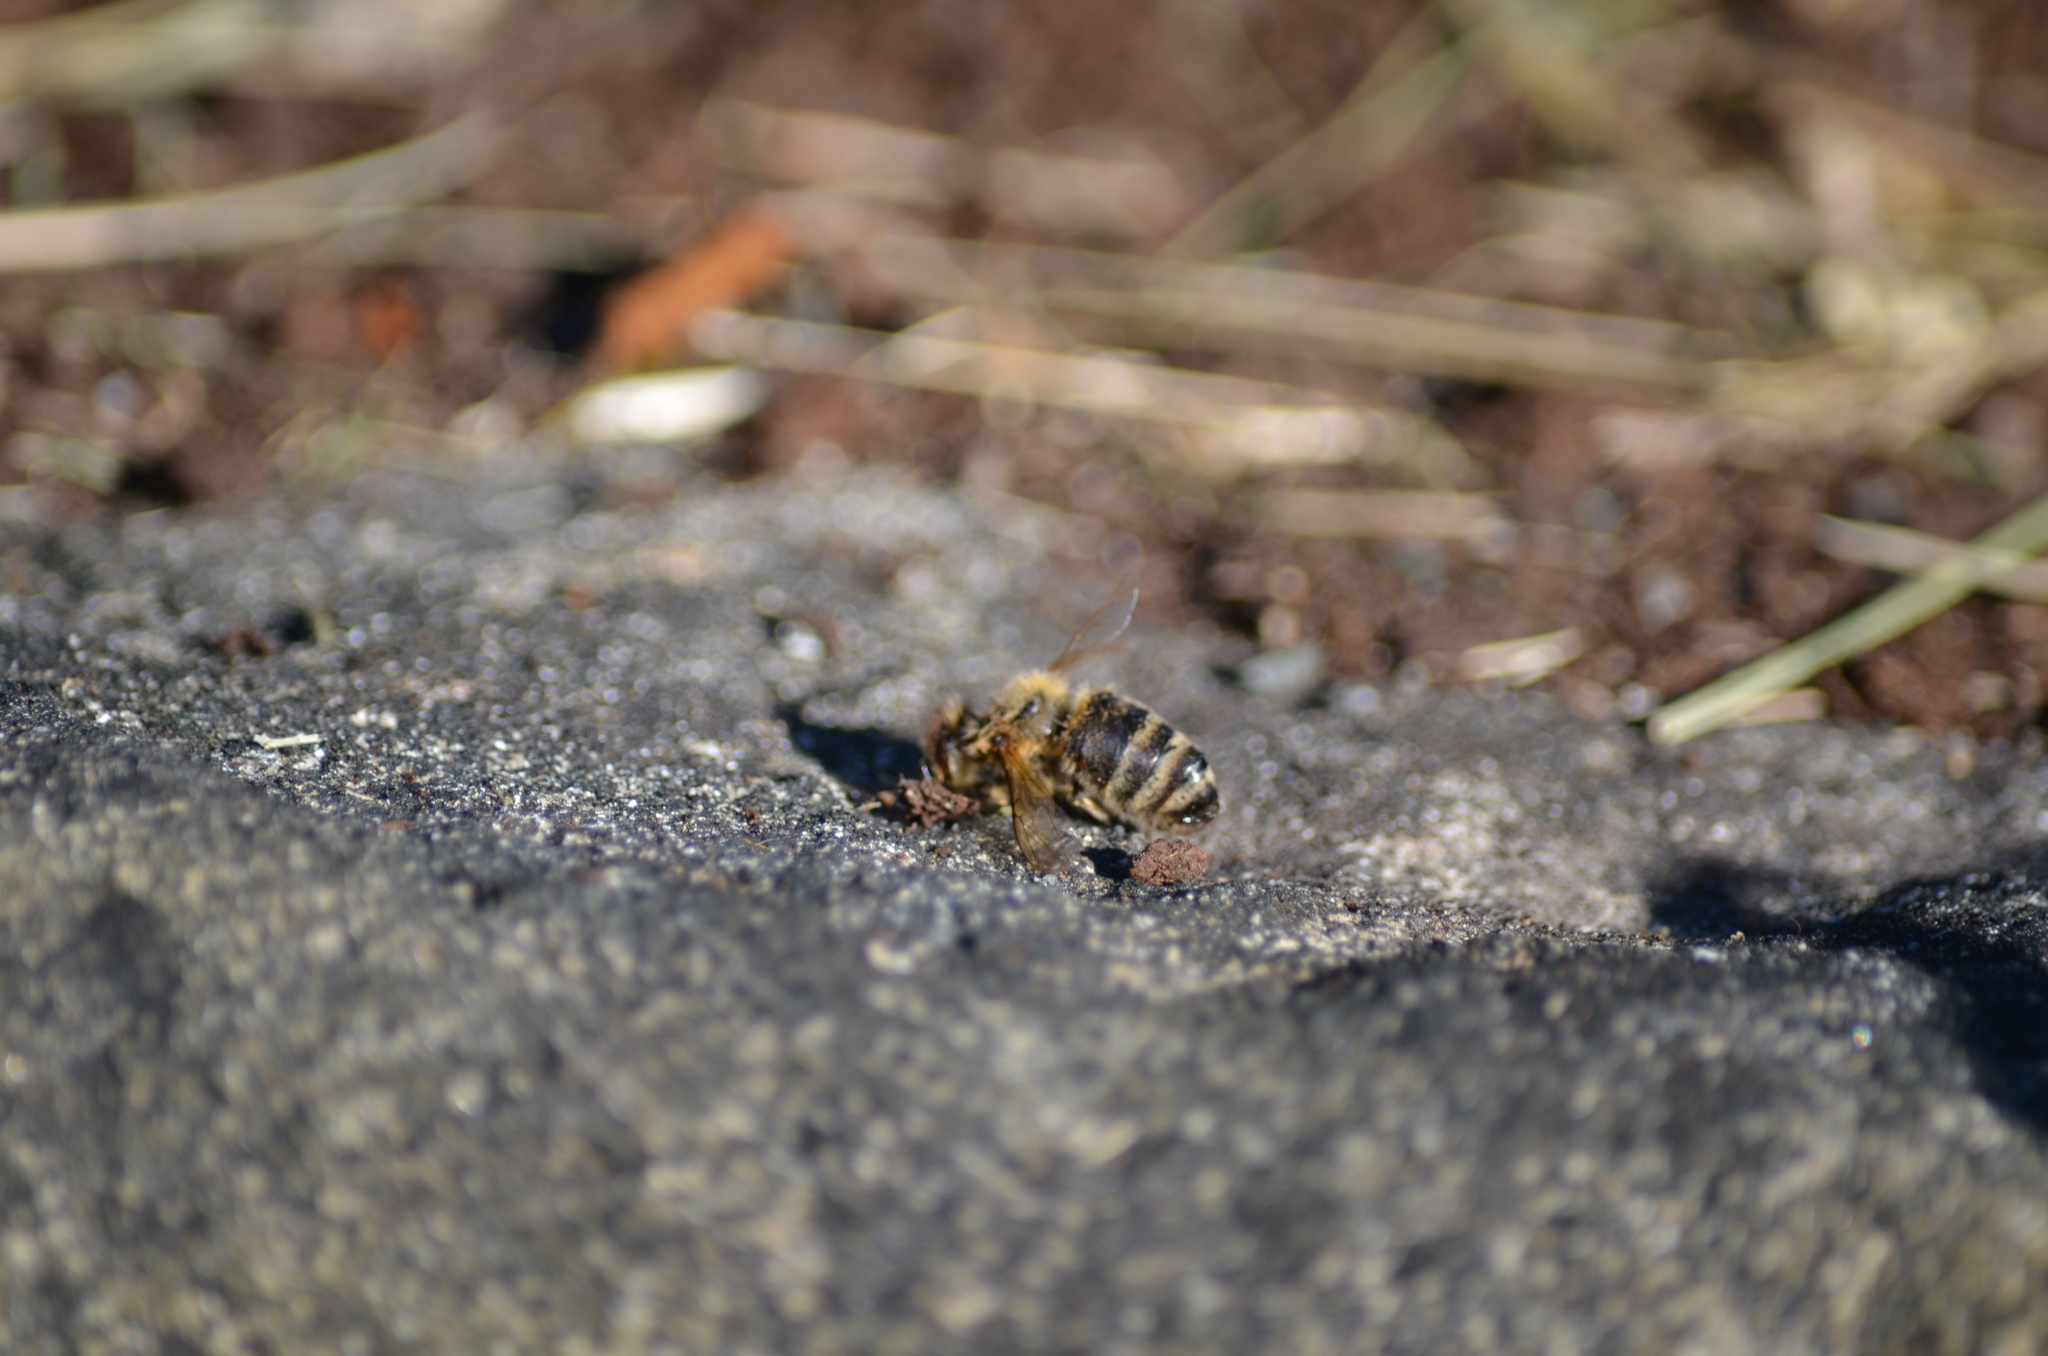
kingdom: Animalia
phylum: Arthropoda
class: Insecta
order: Hymenoptera
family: Apidae
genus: Apis
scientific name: Apis mellifera
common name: Honey bee
